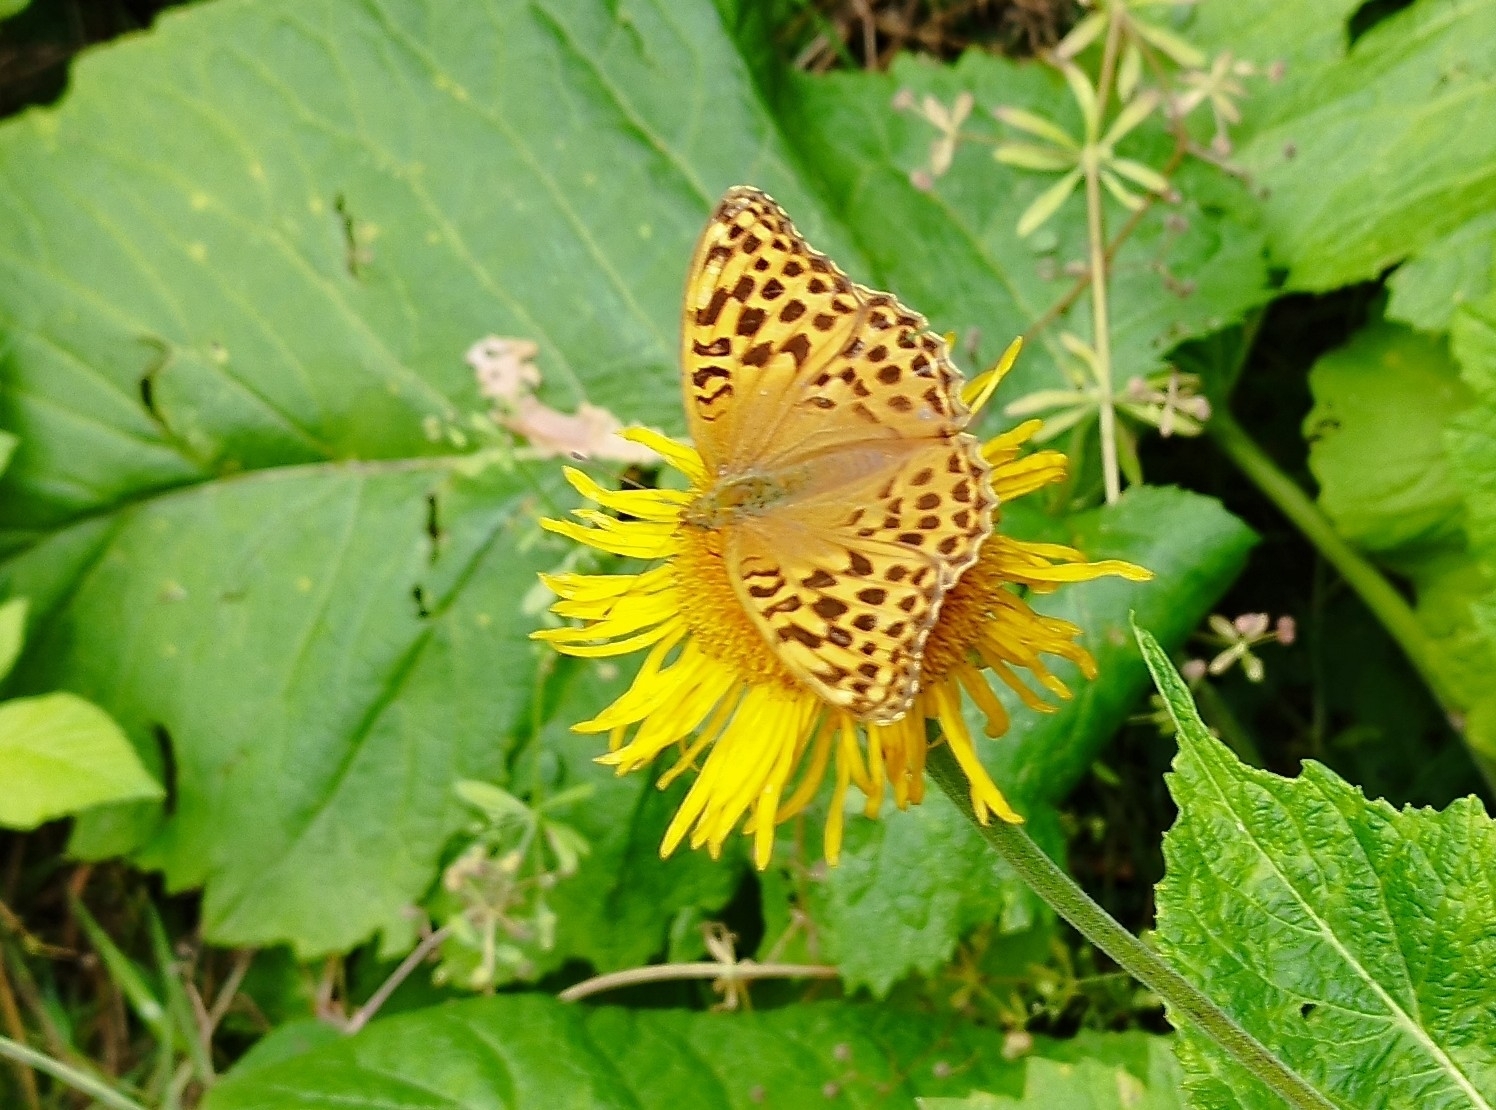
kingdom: Animalia
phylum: Arthropoda
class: Insecta
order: Lepidoptera
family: Nymphalidae
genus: Argynnis
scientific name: Argynnis paphia
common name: Silver-washed fritillary
